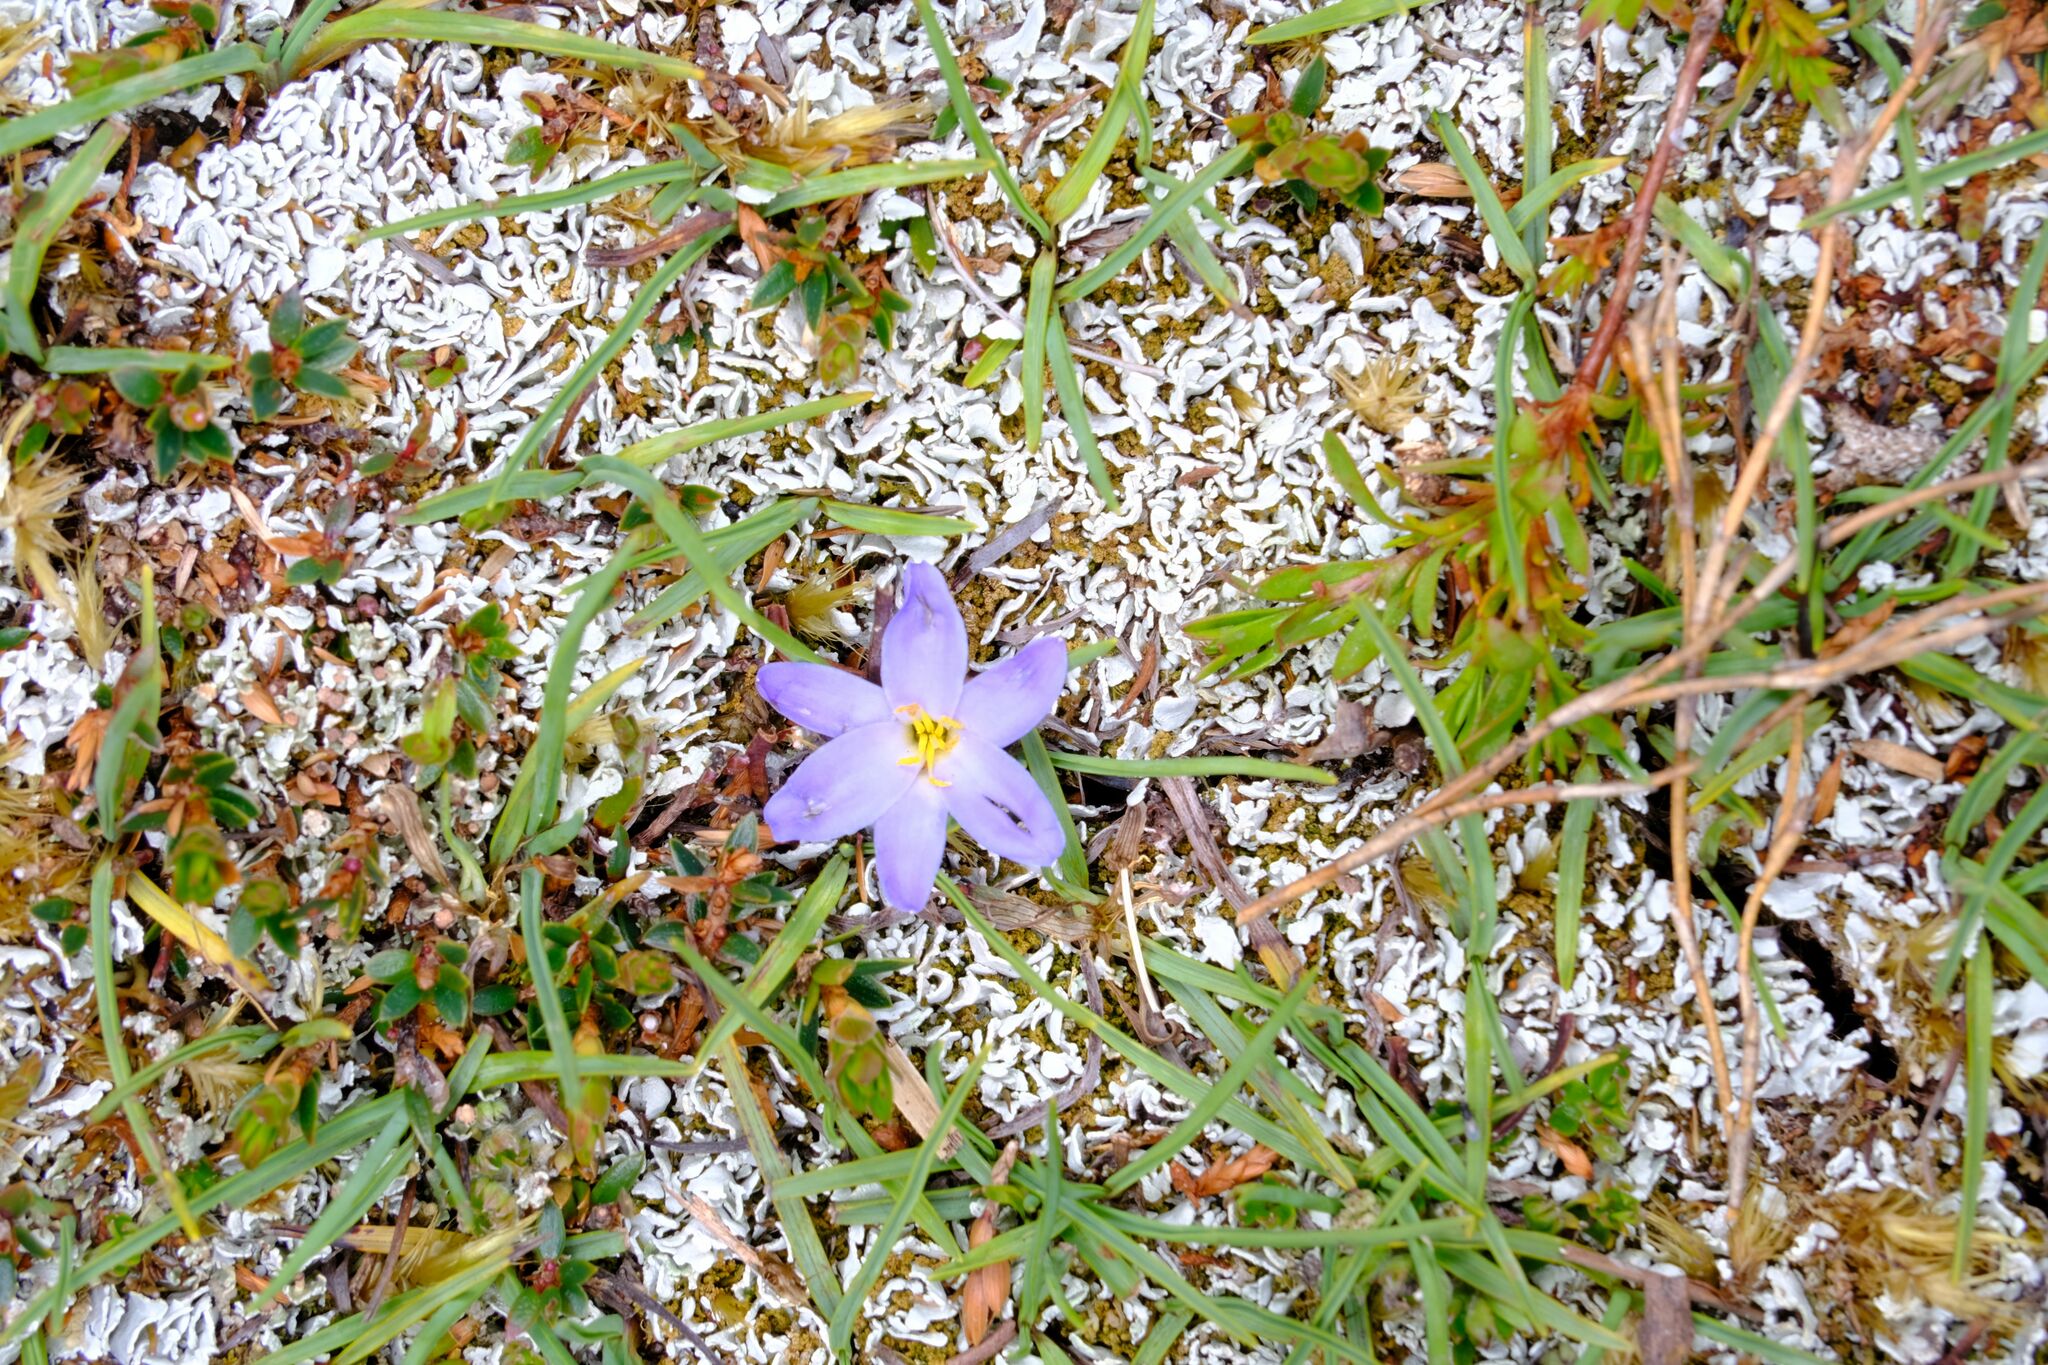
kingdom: Plantae
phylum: Tracheophyta
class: Liliopsida
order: Asparagales
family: Asphodelaceae
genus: Herpolirion
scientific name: Herpolirion novae-zelandiae
